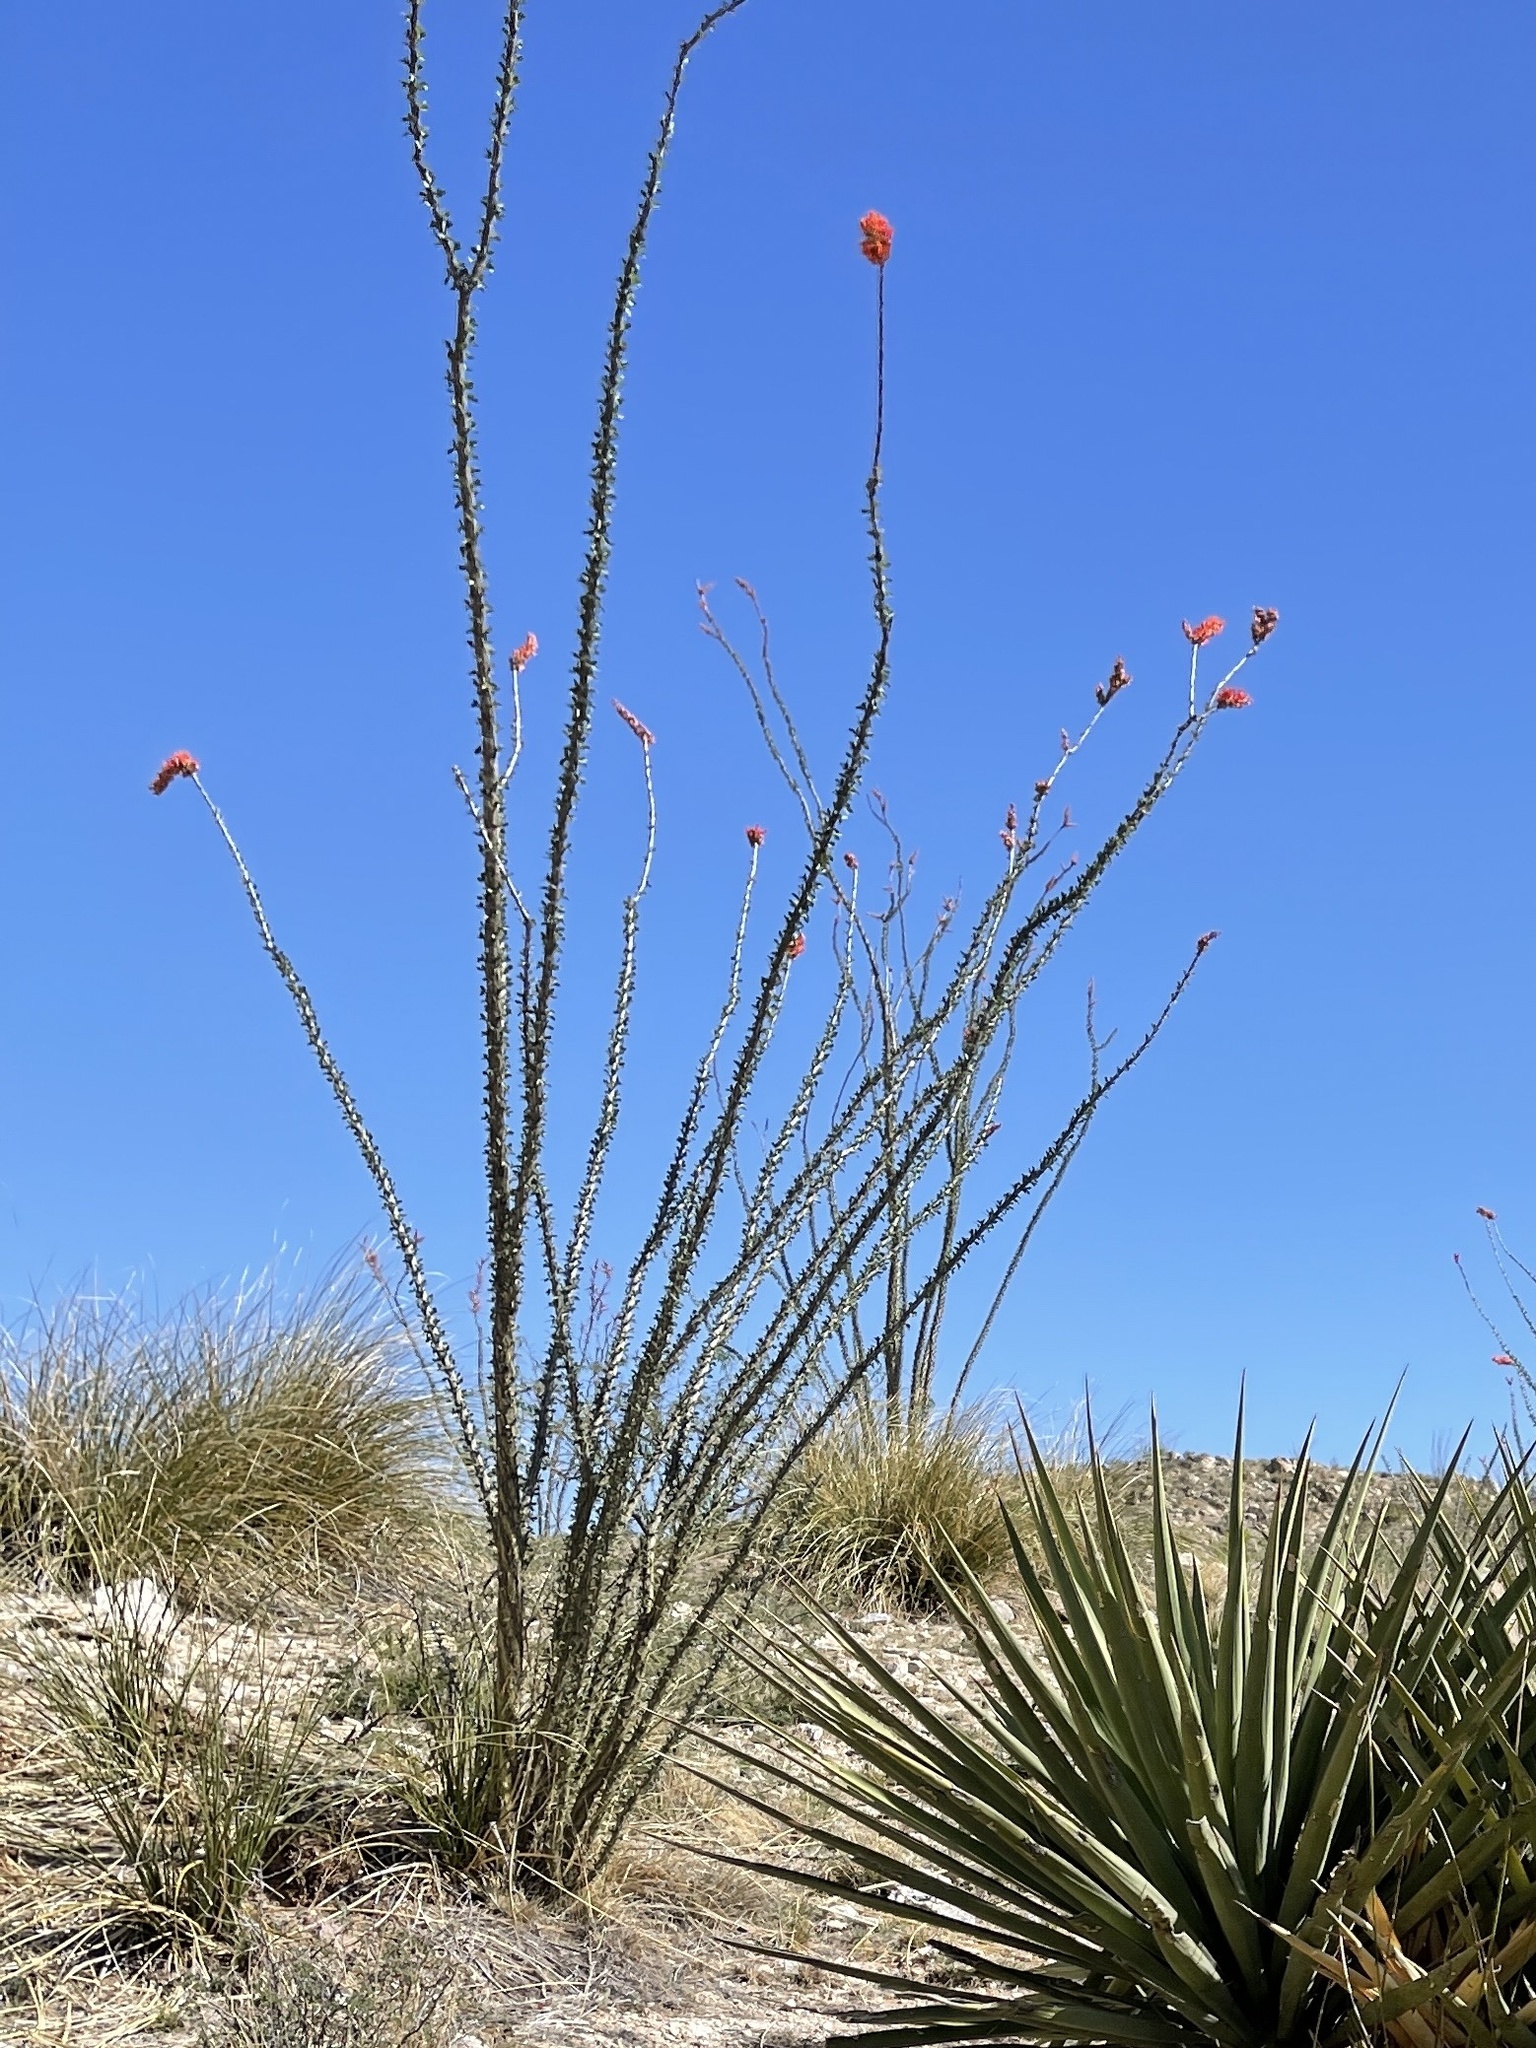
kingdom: Plantae
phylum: Tracheophyta
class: Magnoliopsida
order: Ericales
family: Fouquieriaceae
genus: Fouquieria
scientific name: Fouquieria splendens
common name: Vine-cactus
